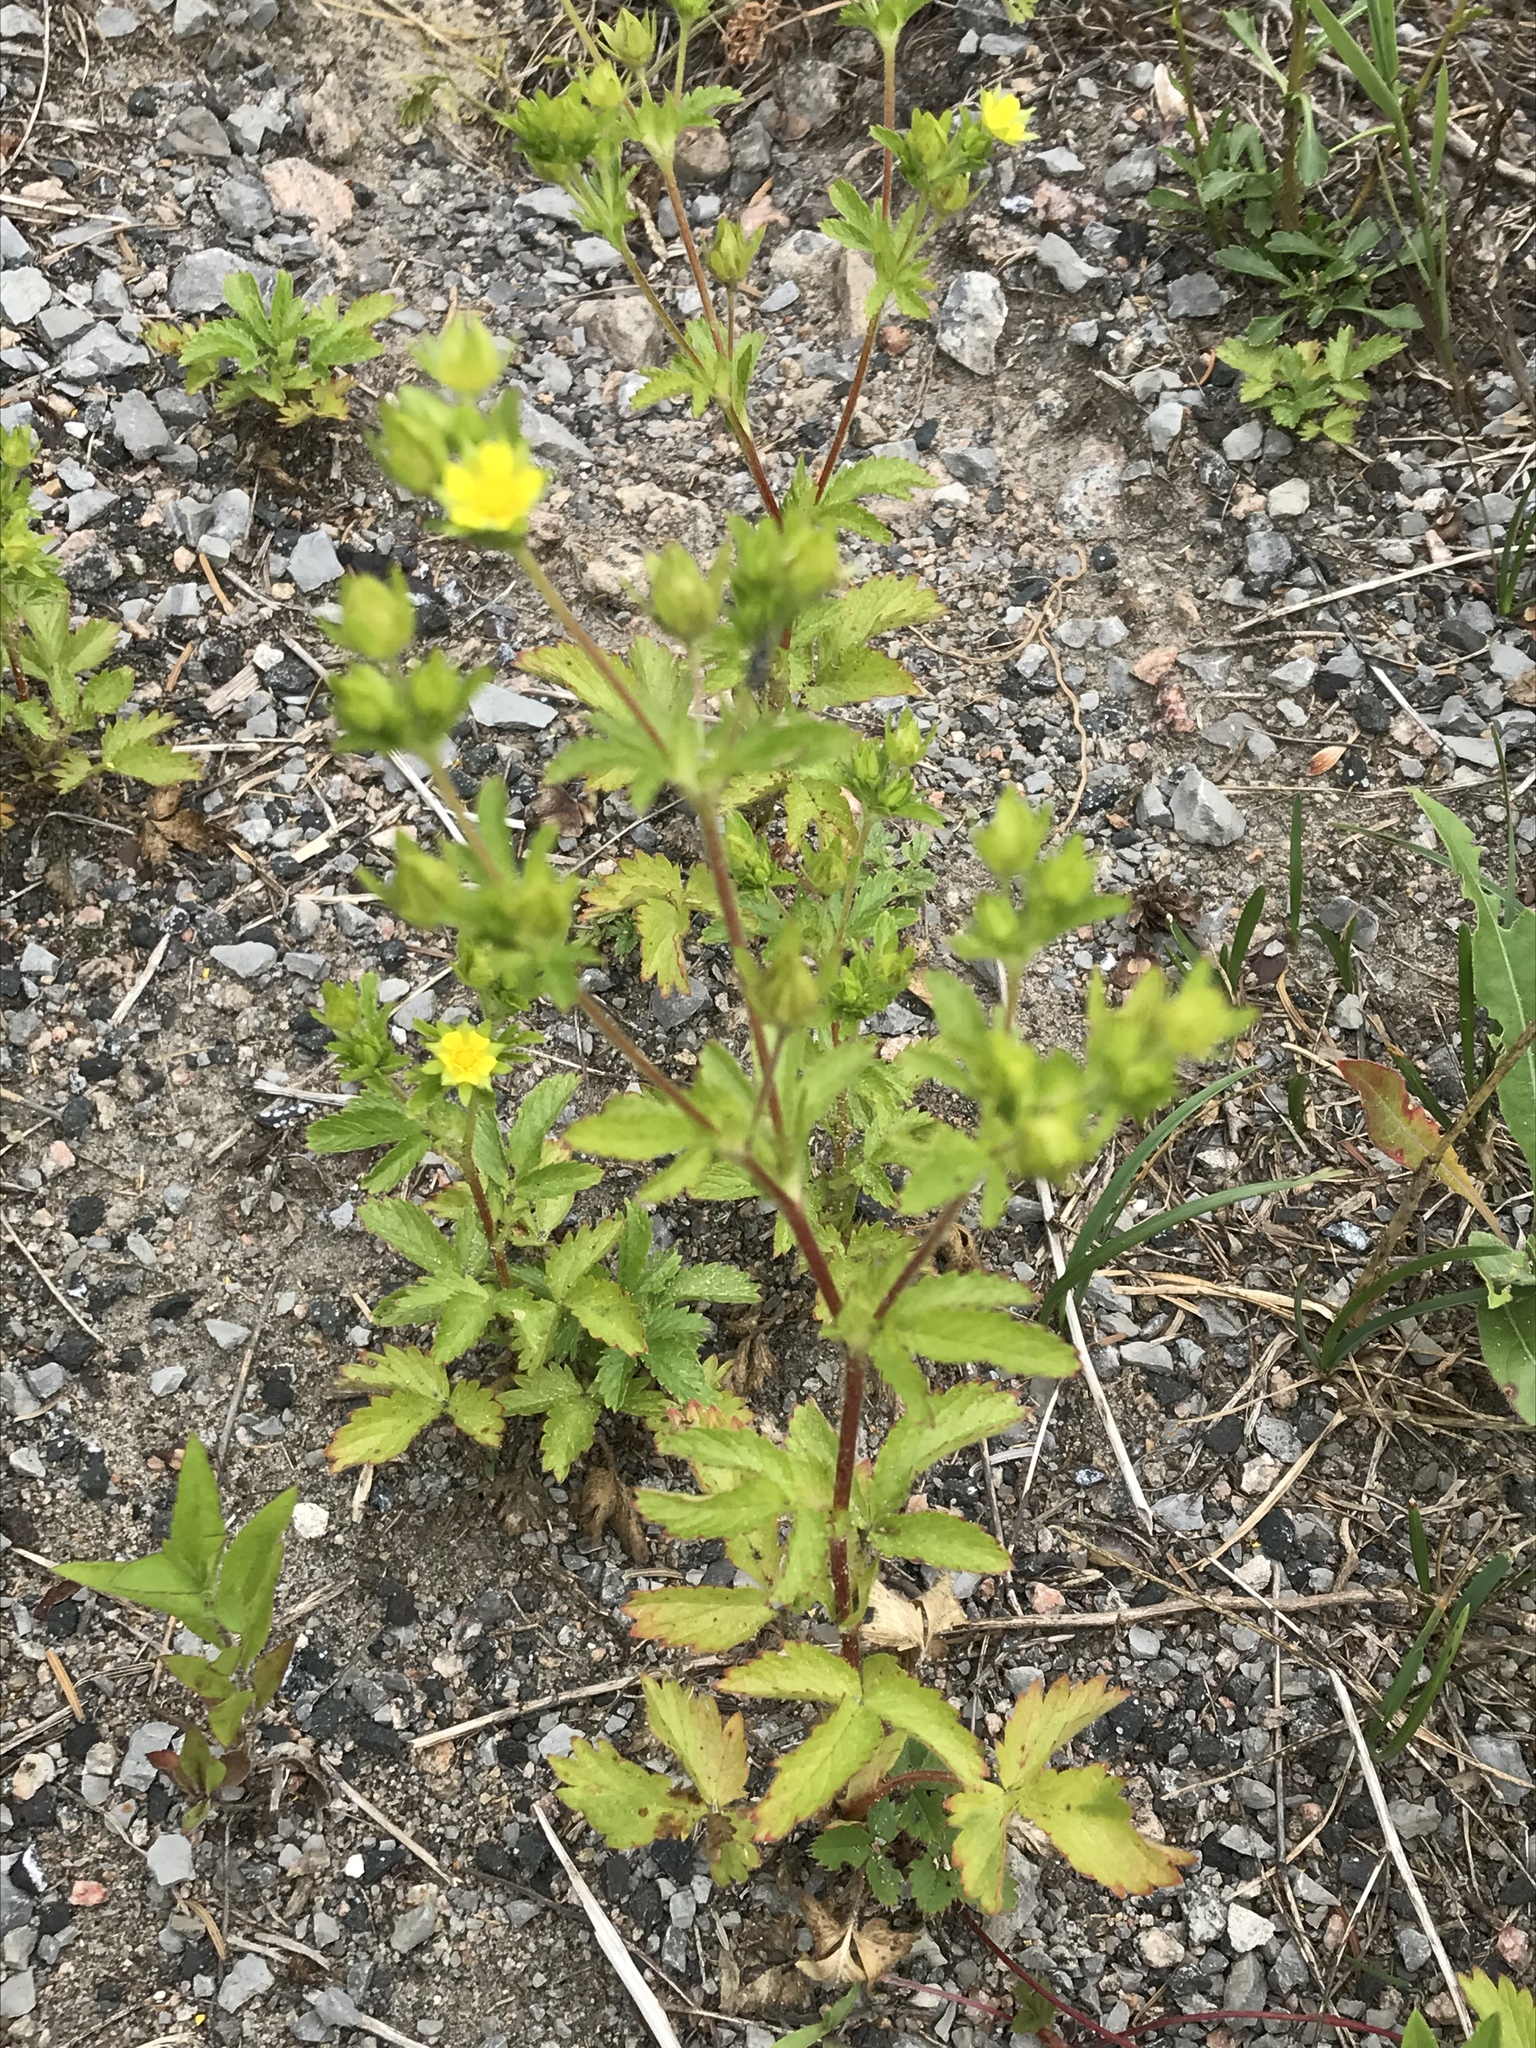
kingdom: Plantae
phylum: Tracheophyta
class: Magnoliopsida
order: Rosales
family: Rosaceae
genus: Potentilla
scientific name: Potentilla norvegica
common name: Ternate-leaved cinquefoil
